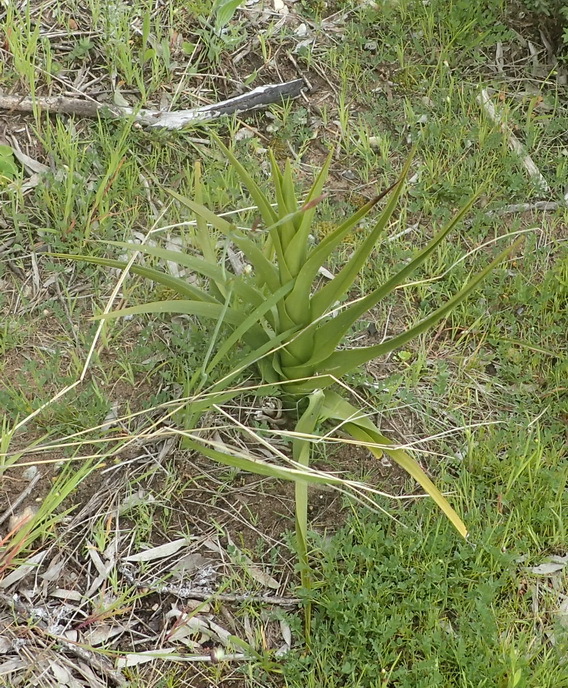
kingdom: Plantae
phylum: Tracheophyta
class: Liliopsida
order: Asparagales
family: Orchidaceae
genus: Eulophia
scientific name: Eulophia cochlearis
